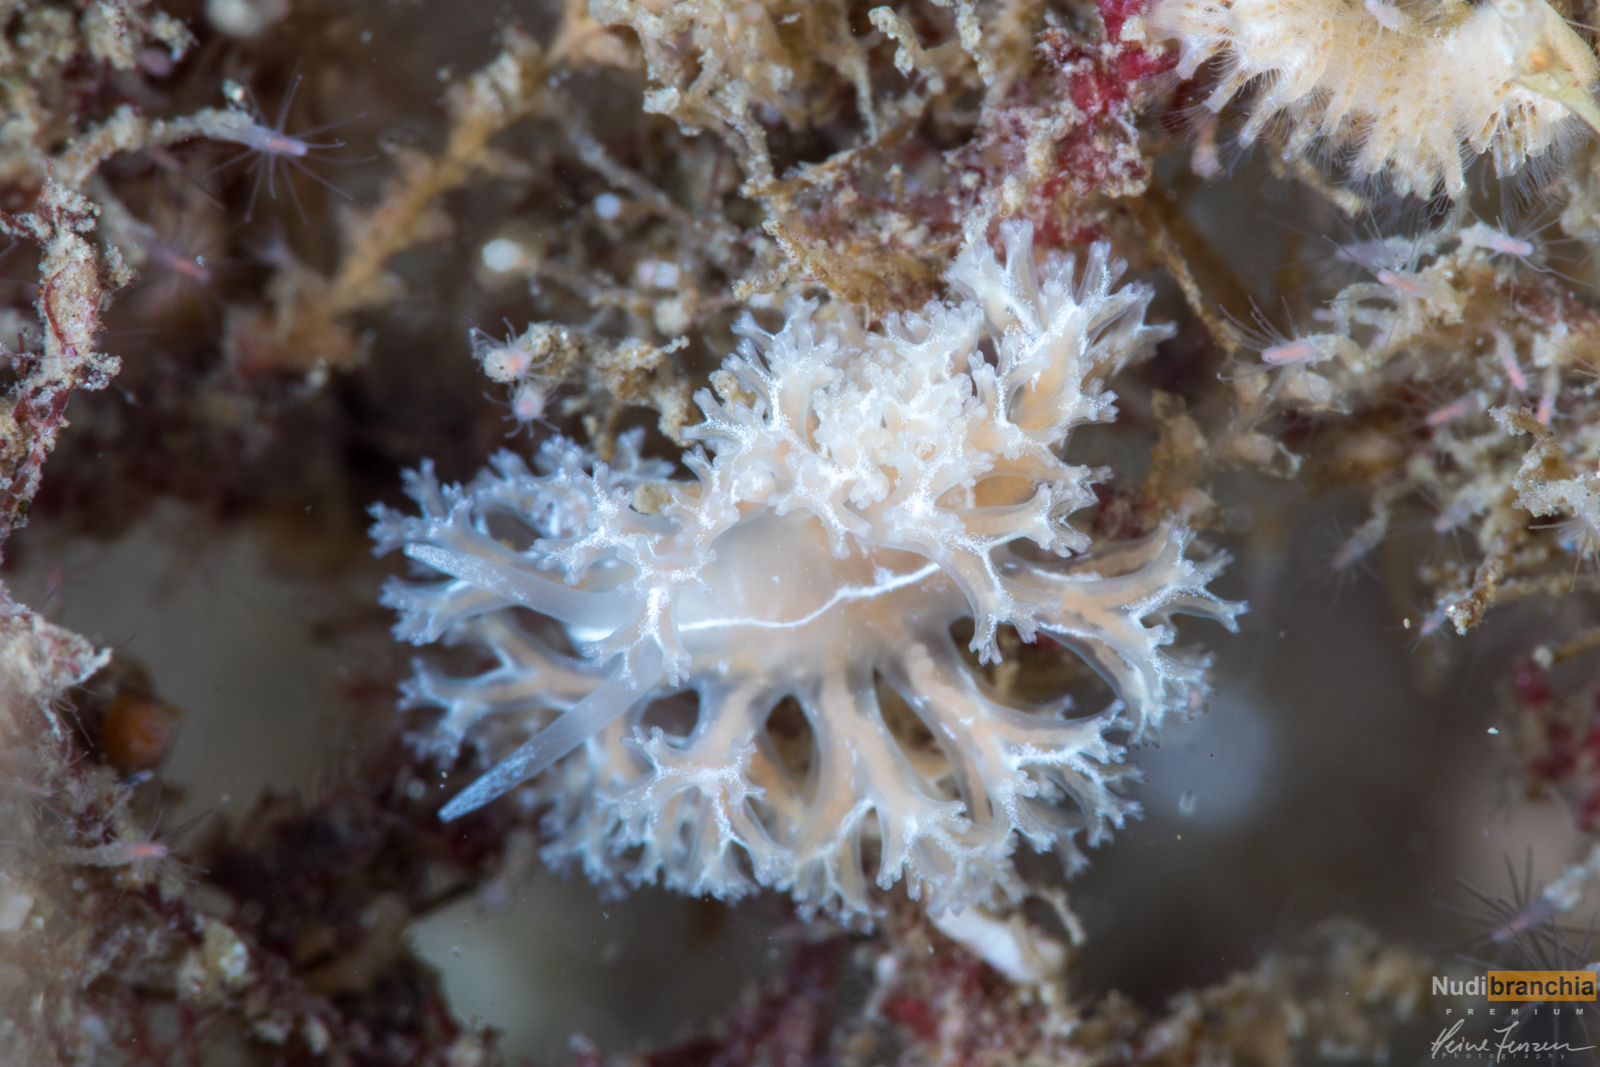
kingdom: Animalia
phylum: Mollusca
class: Gastropoda
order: Nudibranchia
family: Heroidae
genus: Hero
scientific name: Hero formosa
